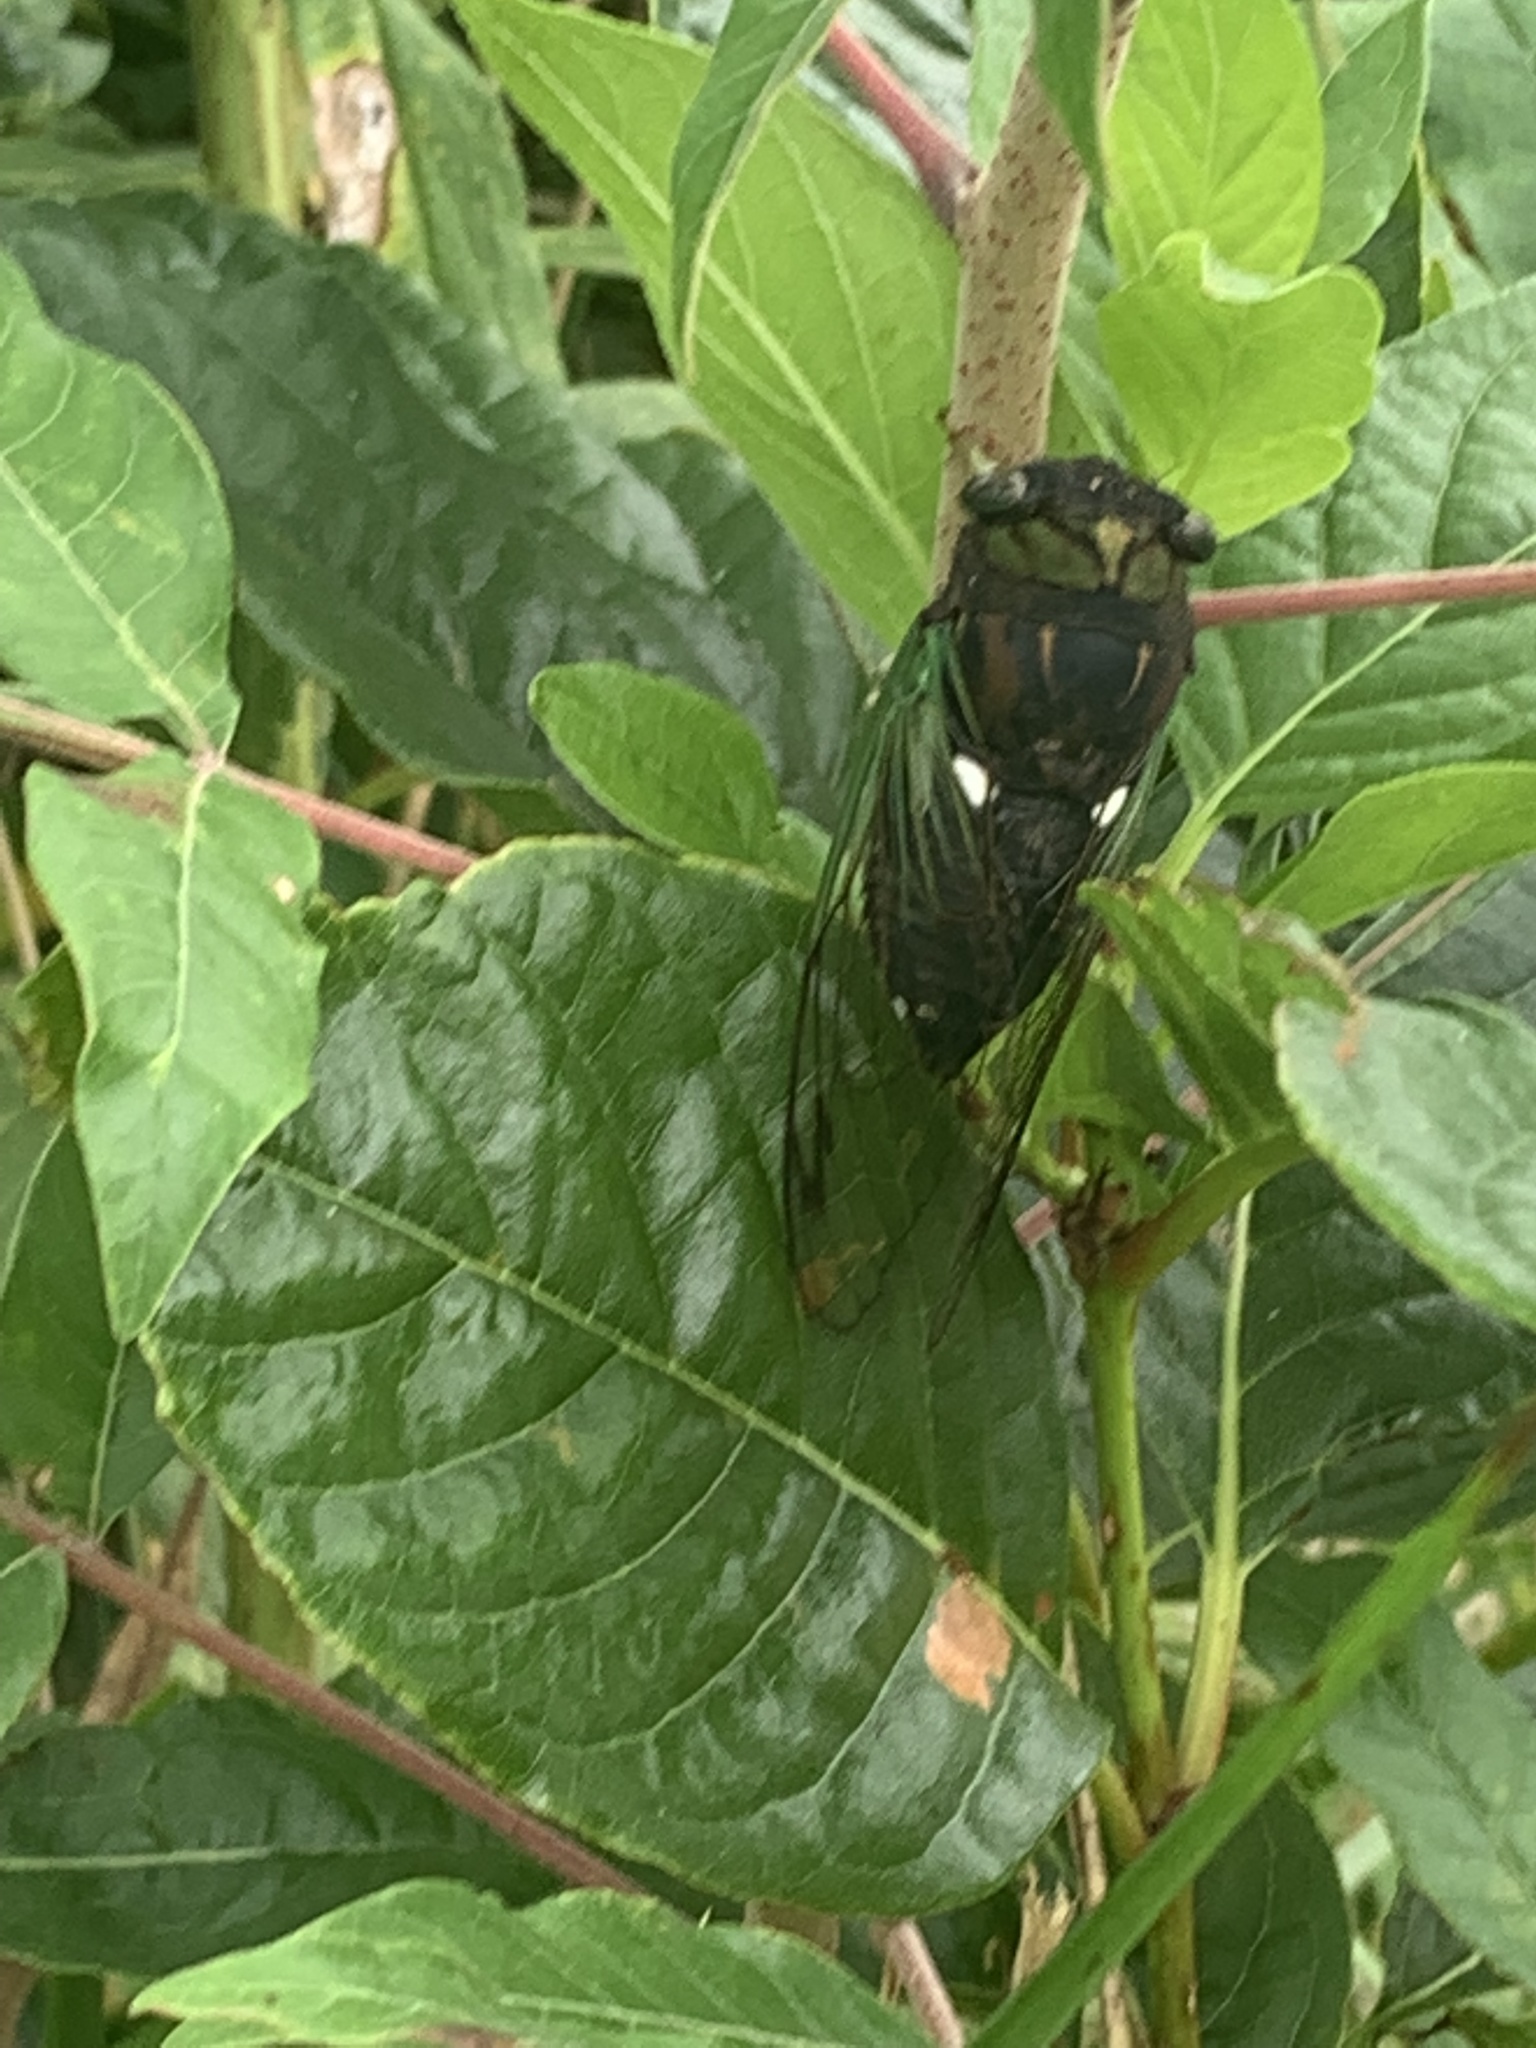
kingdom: Animalia
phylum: Arthropoda
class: Insecta
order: Hemiptera
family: Cicadidae
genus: Neotibicen
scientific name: Neotibicen tibicen
